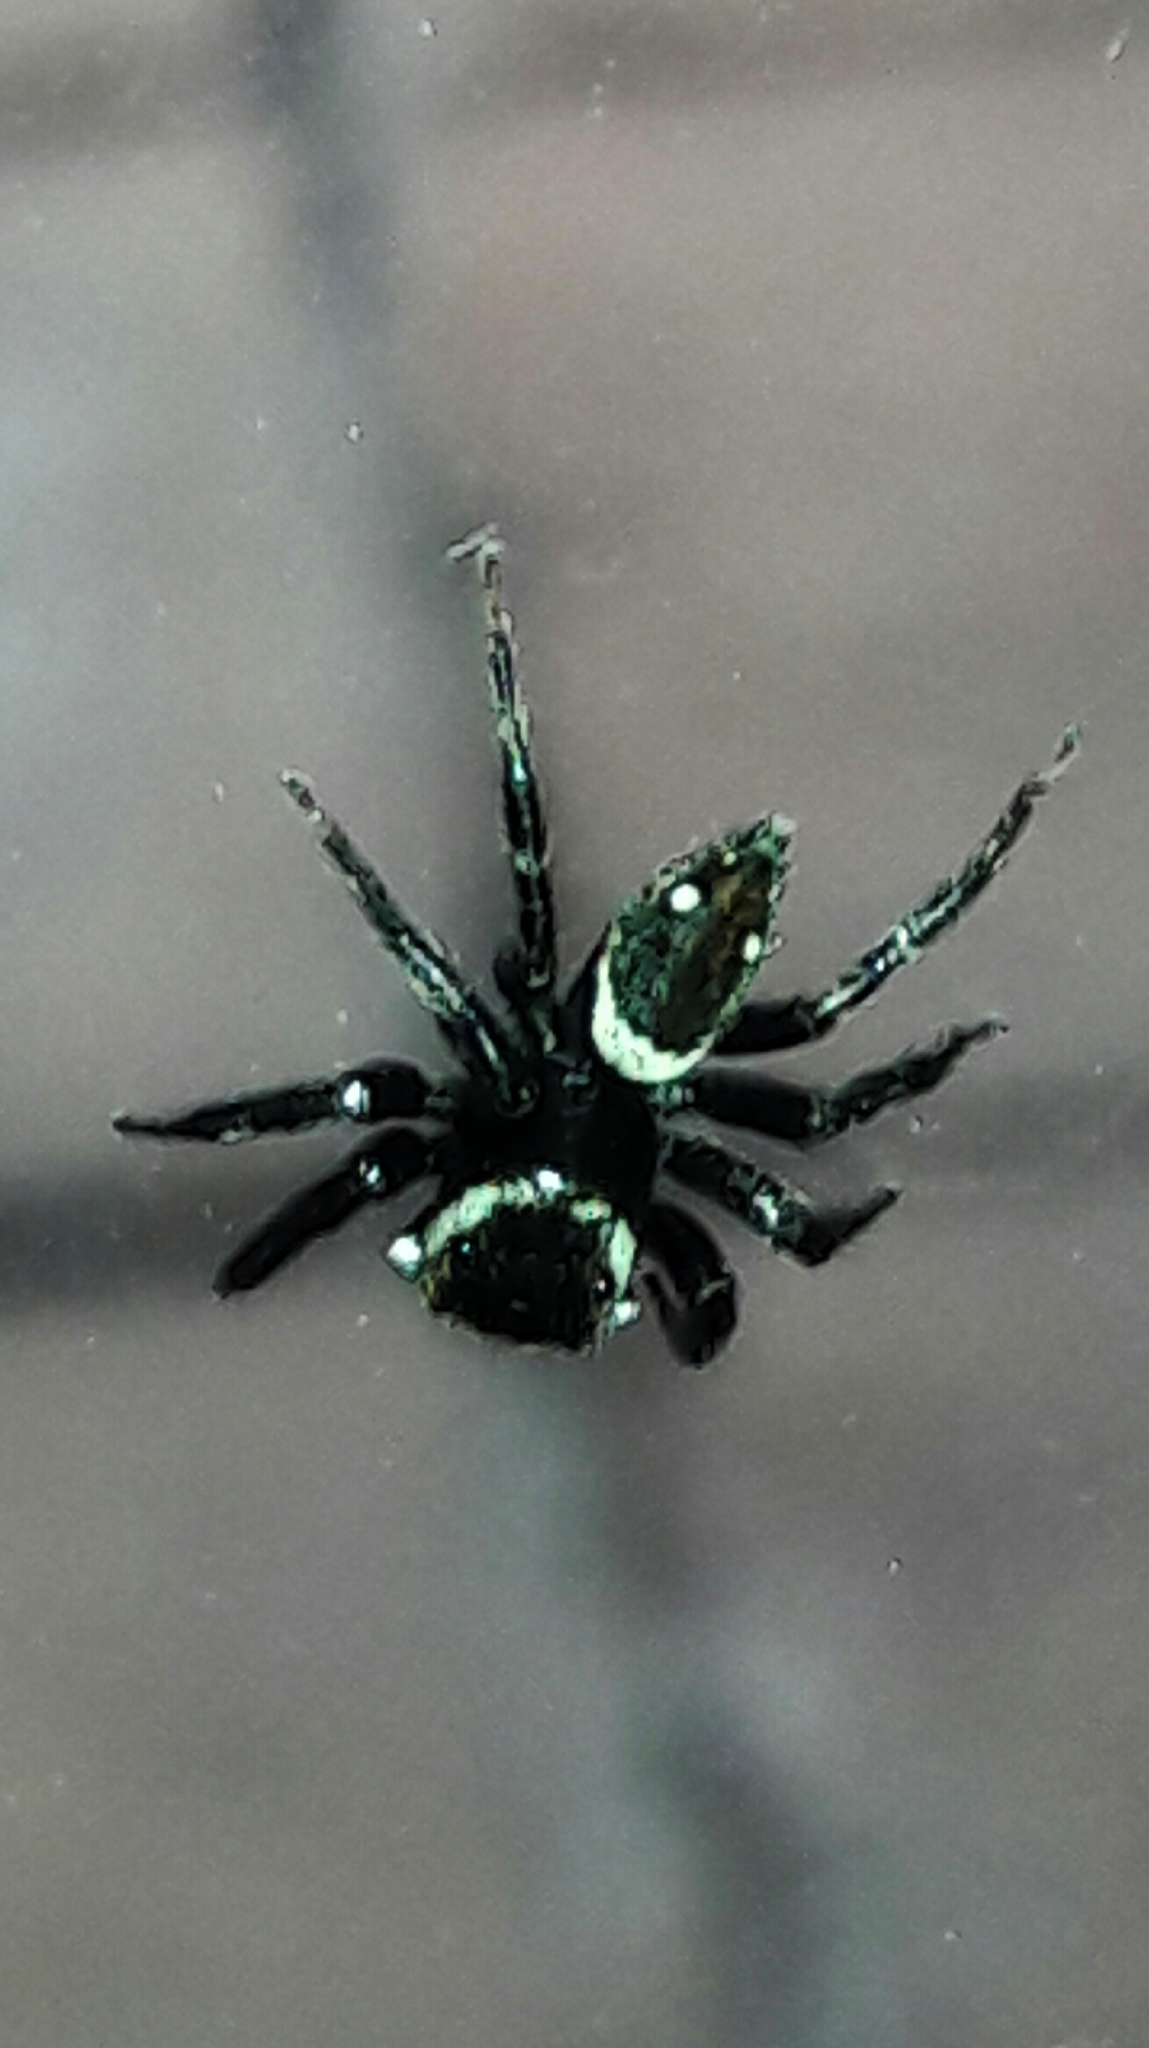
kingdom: Animalia
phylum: Arthropoda
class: Arachnida
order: Araneae
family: Salticidae
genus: Hasarius
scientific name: Hasarius adansoni
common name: Jumping spider
